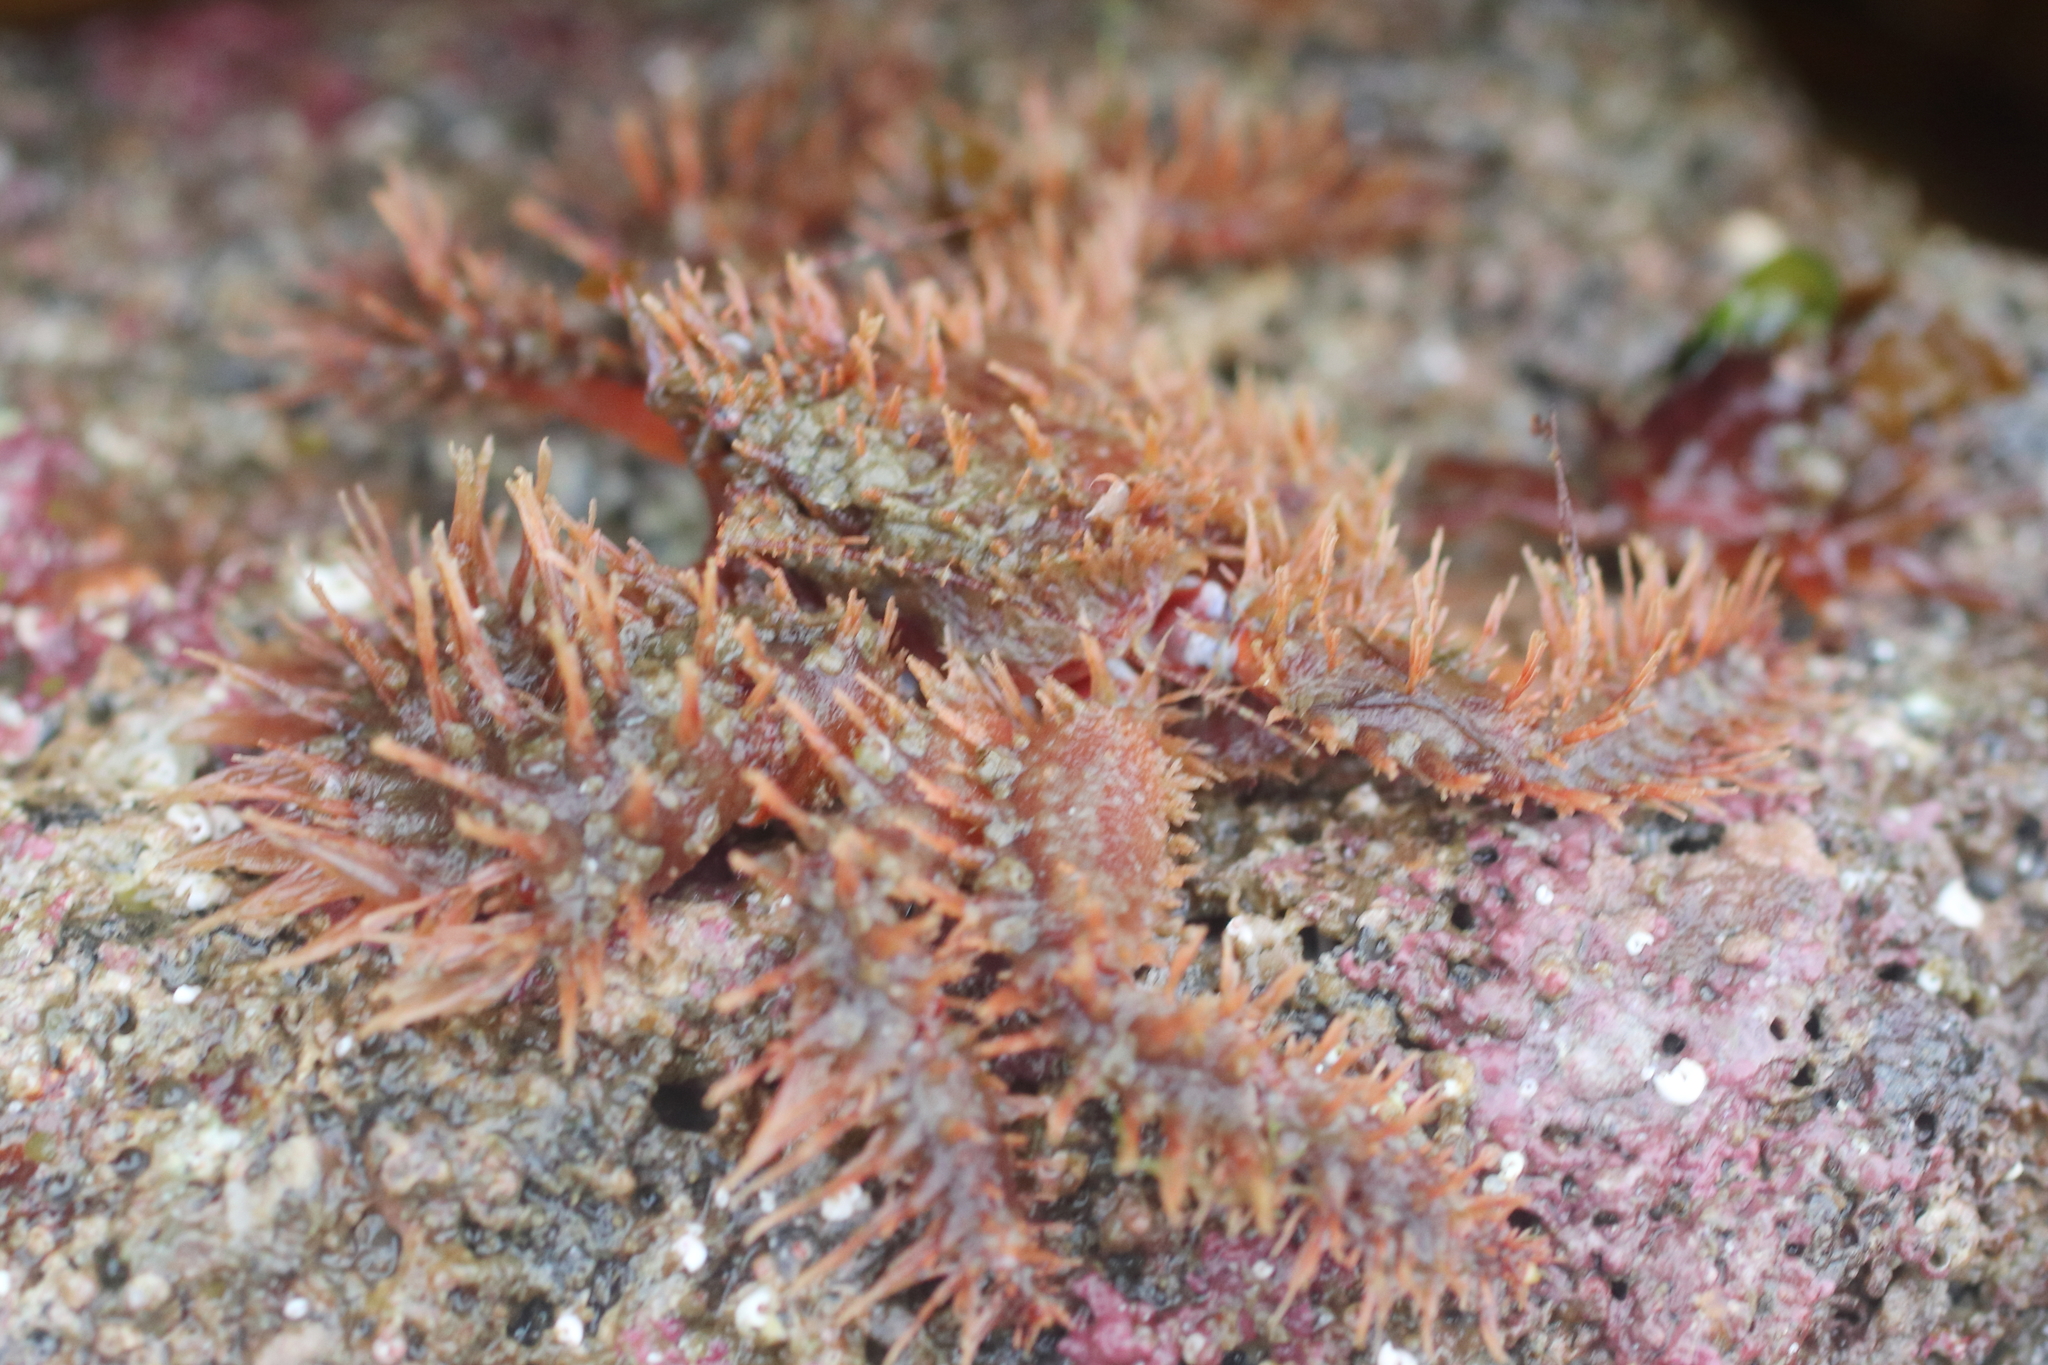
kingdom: Animalia
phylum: Arthropoda
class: Malacostraca
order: Decapoda
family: Hapalogastridae
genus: Hapalogaster
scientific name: Hapalogaster mertensii
